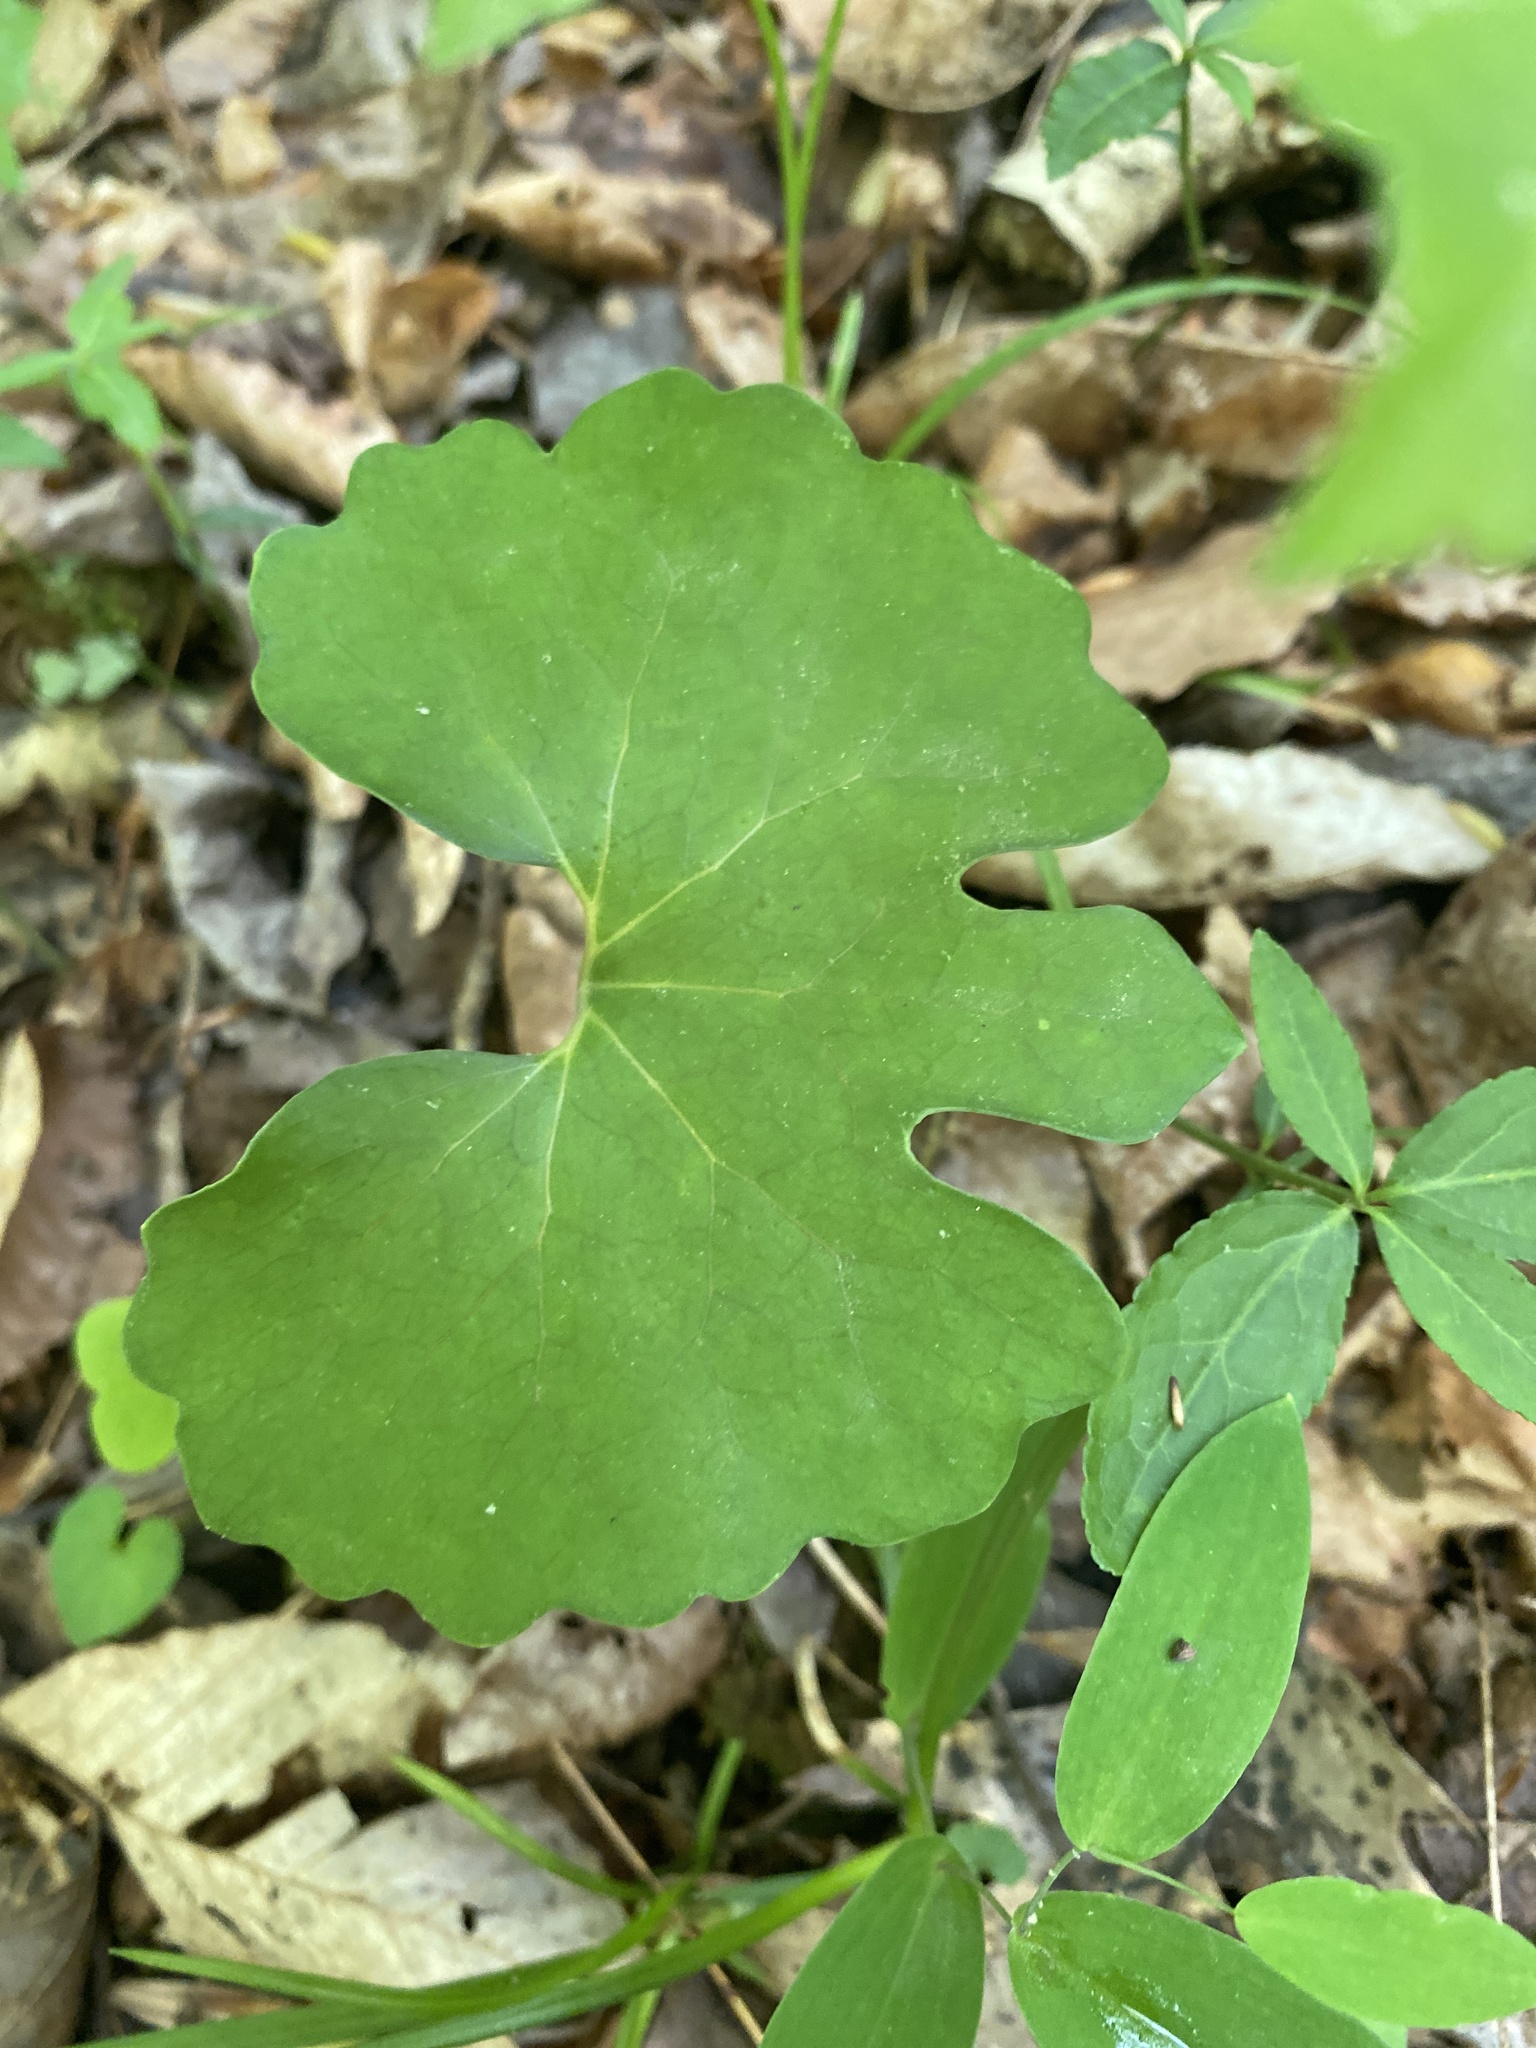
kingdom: Plantae
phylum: Tracheophyta
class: Magnoliopsida
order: Ranunculales
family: Papaveraceae
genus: Sanguinaria
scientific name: Sanguinaria canadensis
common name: Bloodroot
